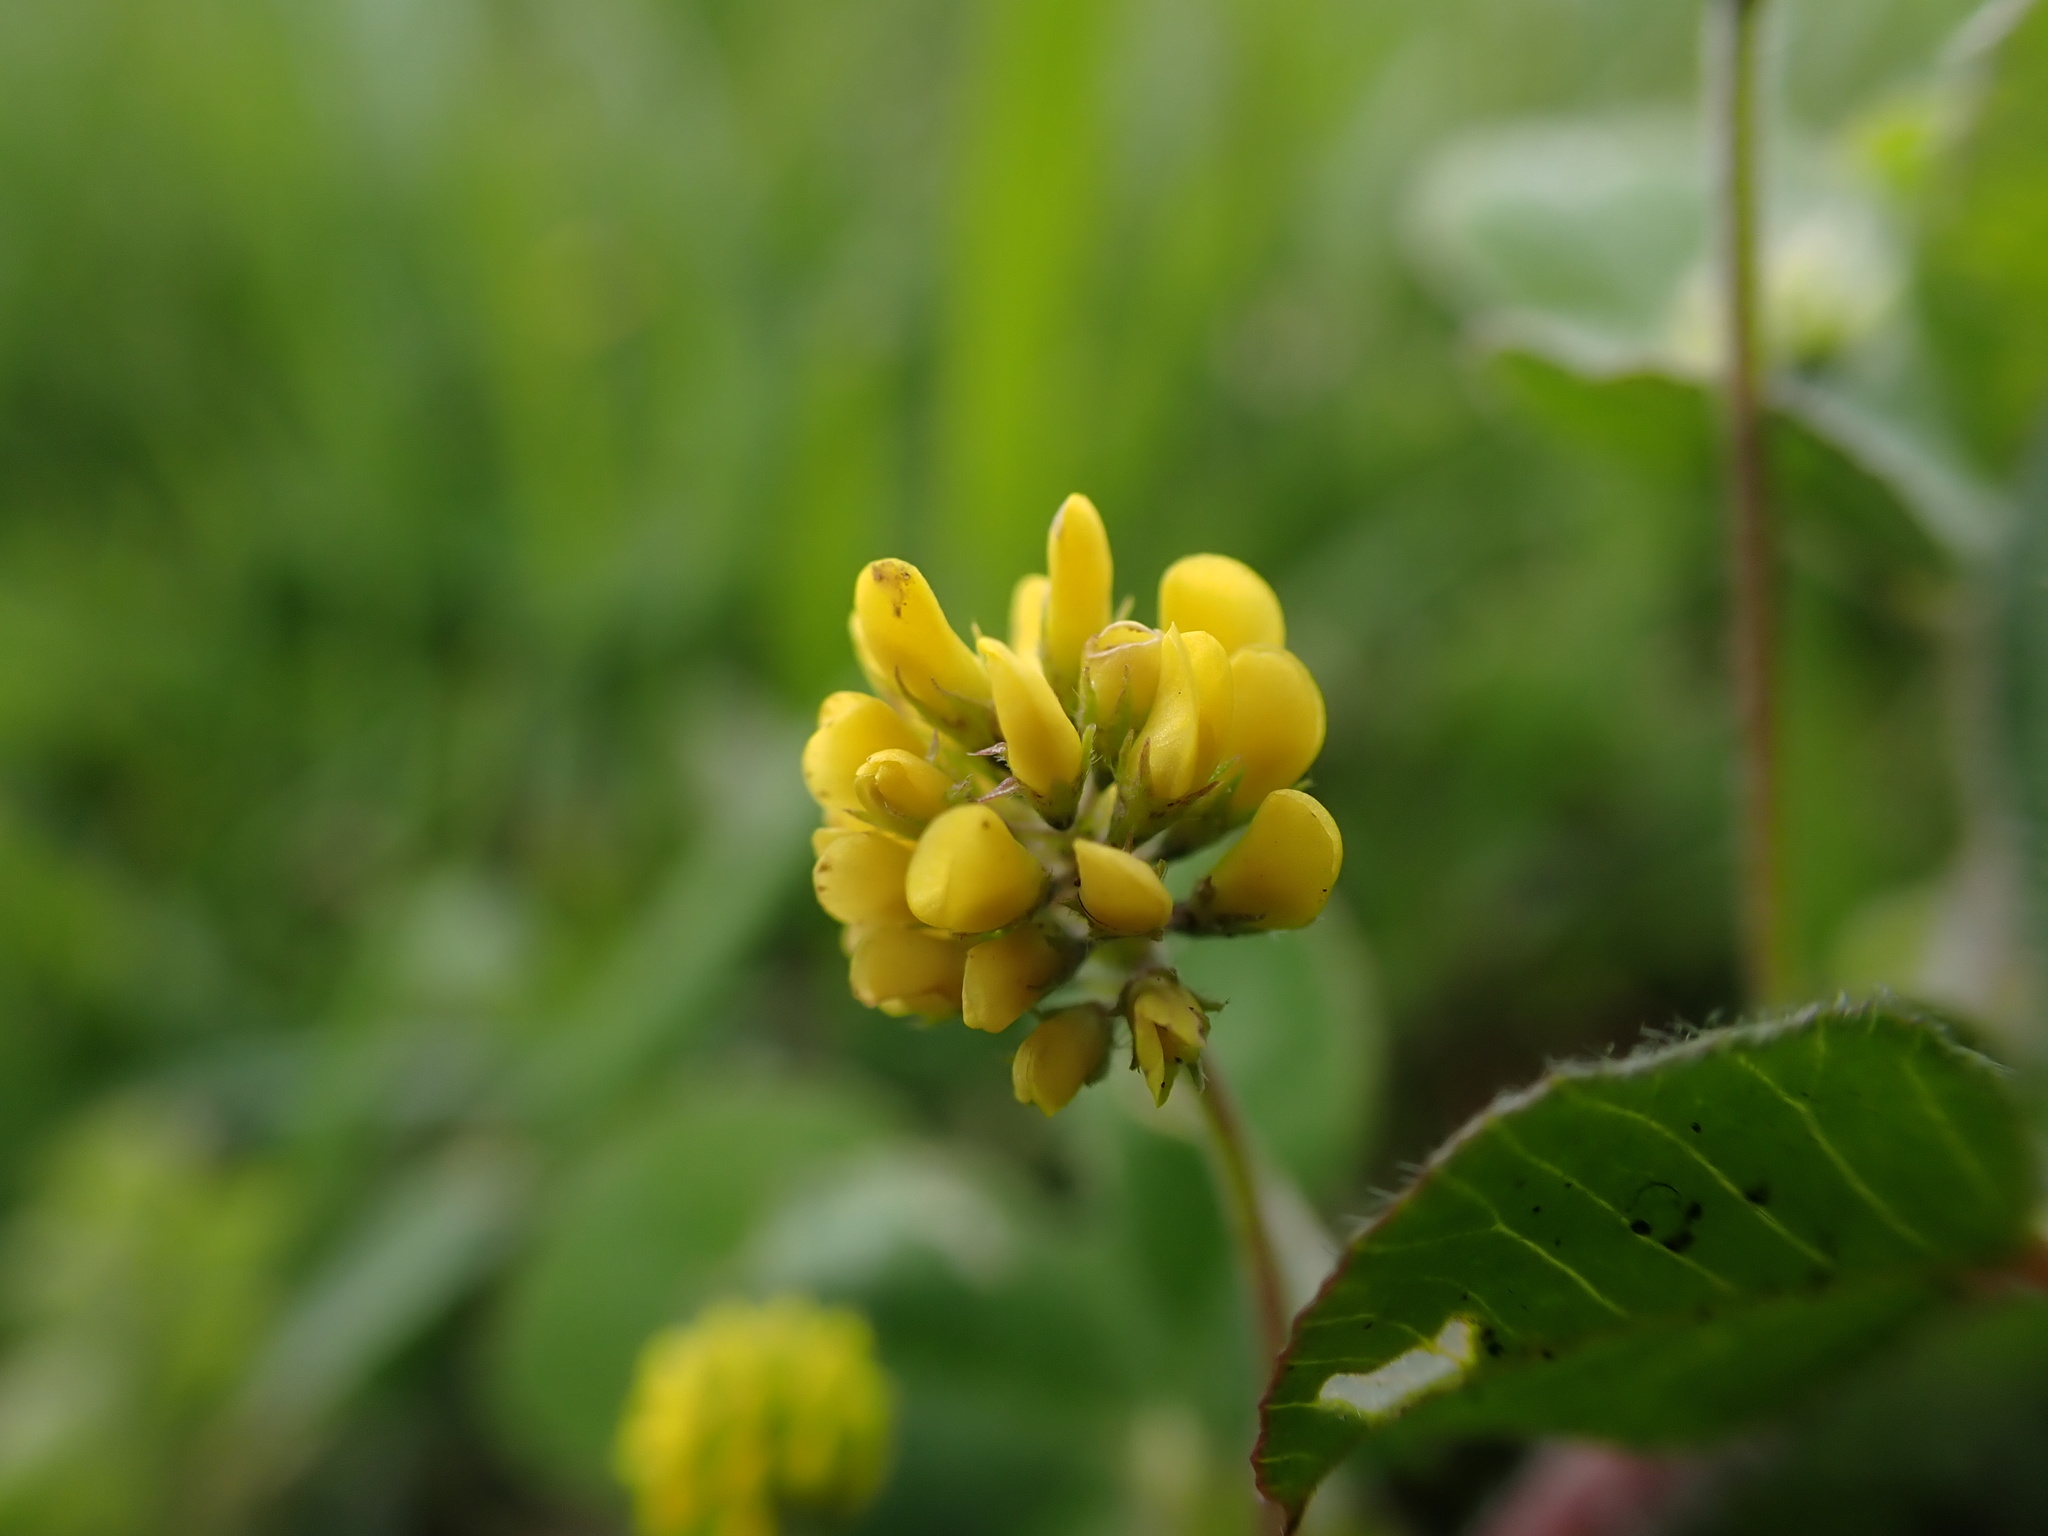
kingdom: Plantae
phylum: Tracheophyta
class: Magnoliopsida
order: Fabales
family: Fabaceae
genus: Medicago
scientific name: Medicago lupulina
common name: Black medick
